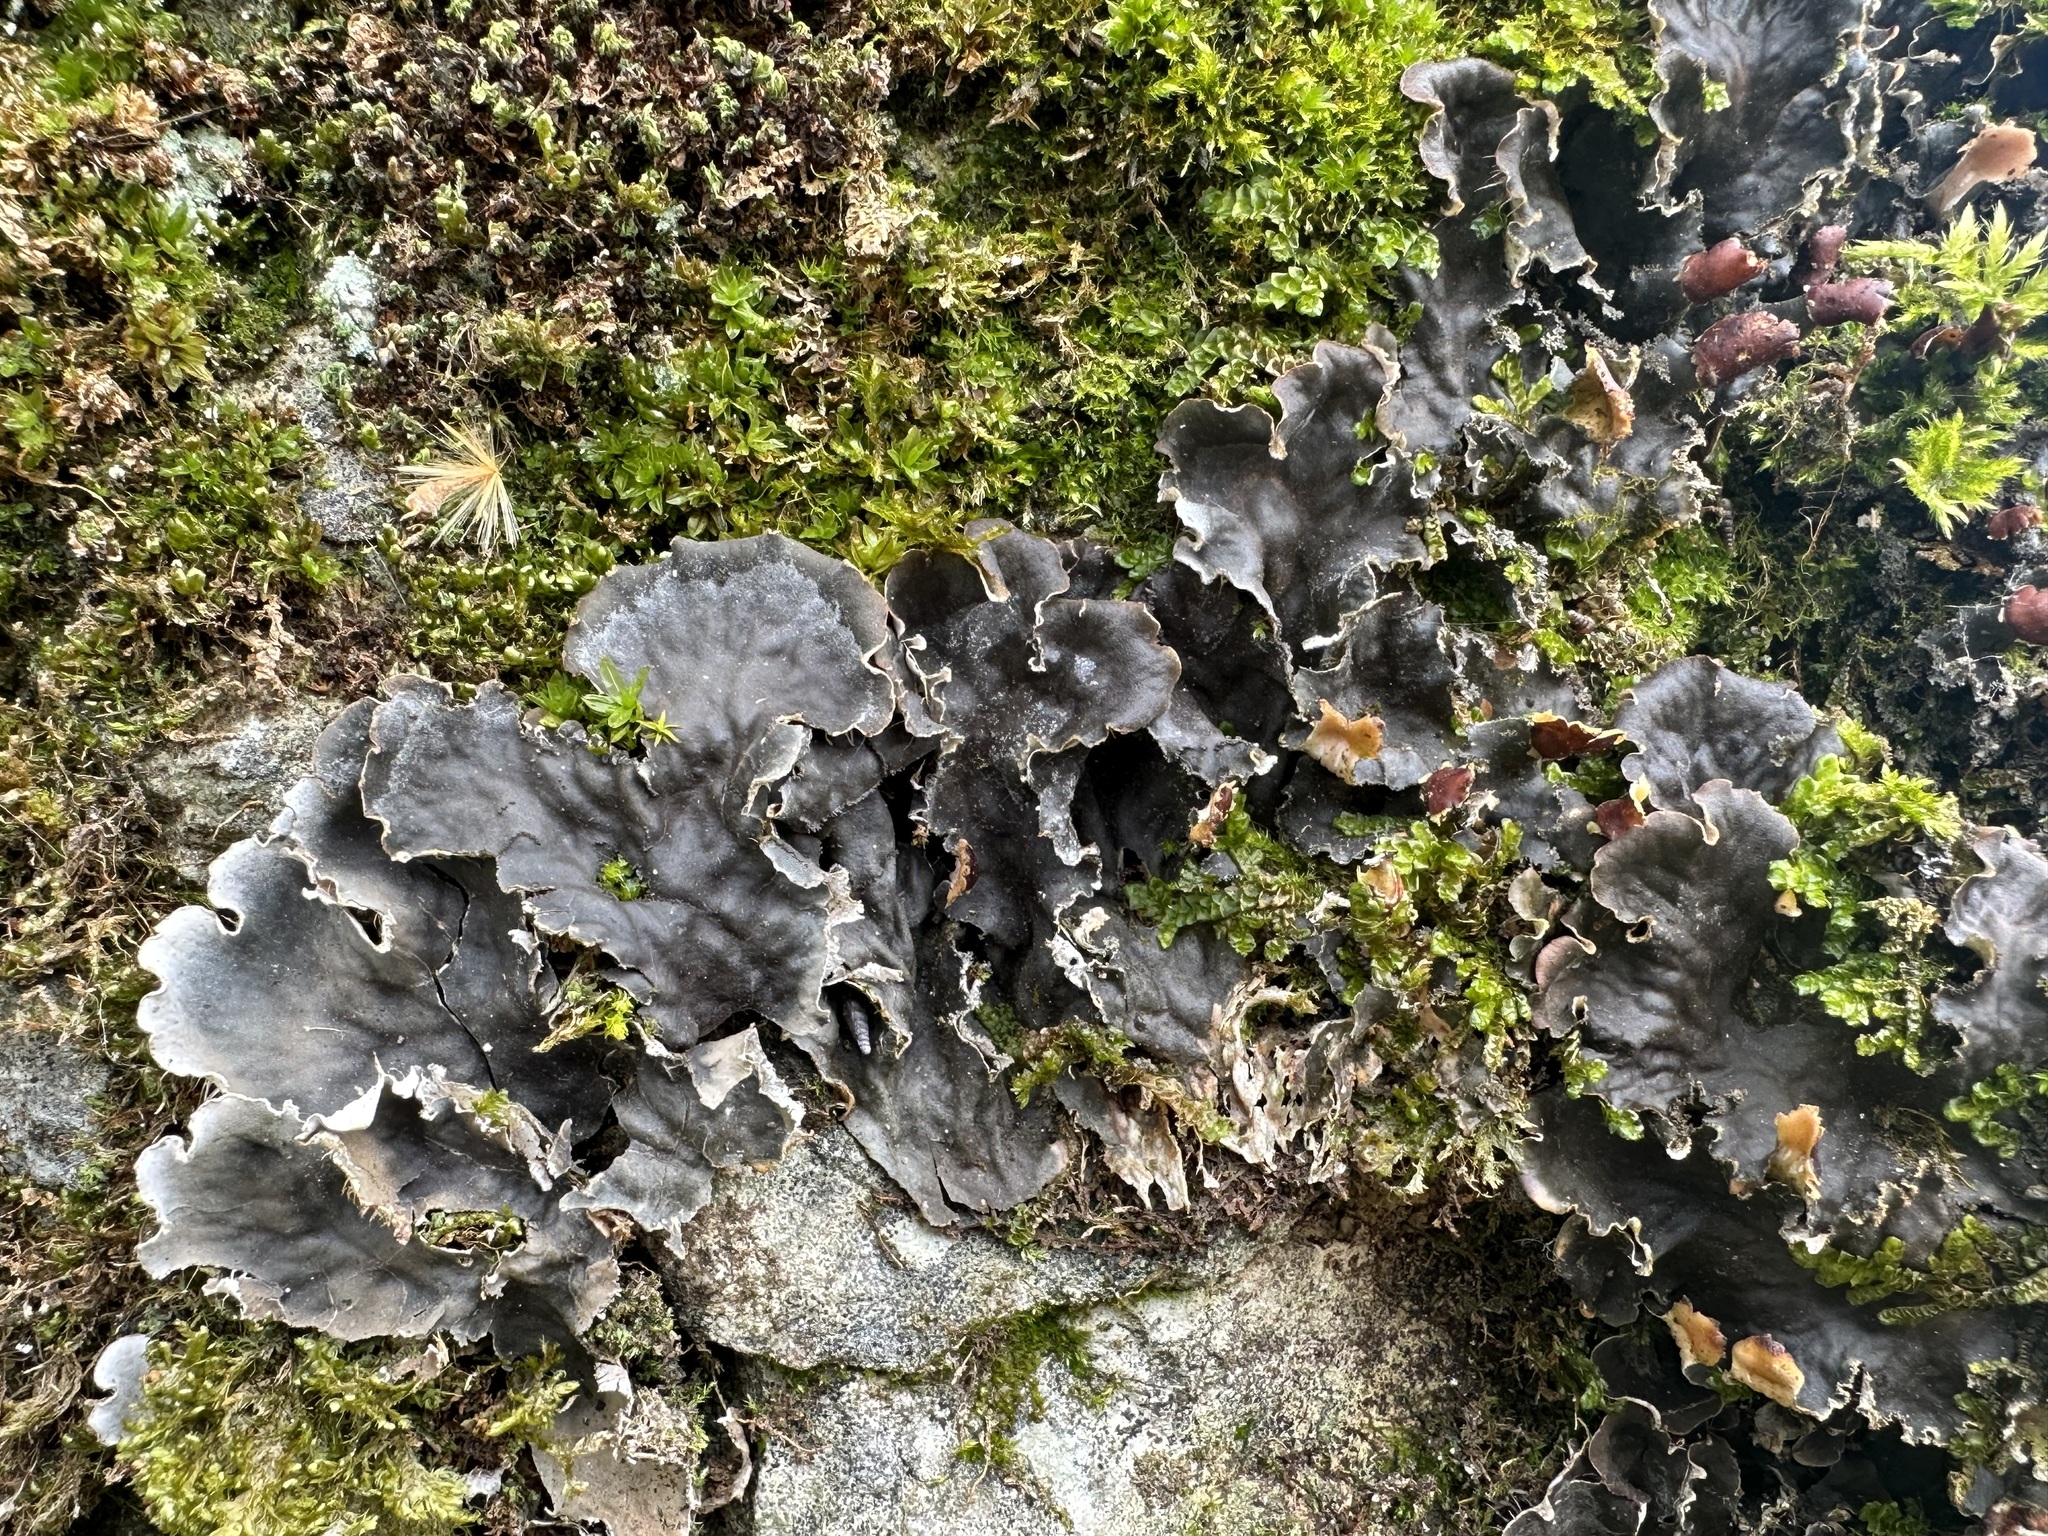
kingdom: Fungi
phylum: Ascomycota
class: Lecanoromycetes
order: Peltigerales
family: Peltigeraceae
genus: Peltigera
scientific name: Peltigera praetextata
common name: Scaly dog-lichen
